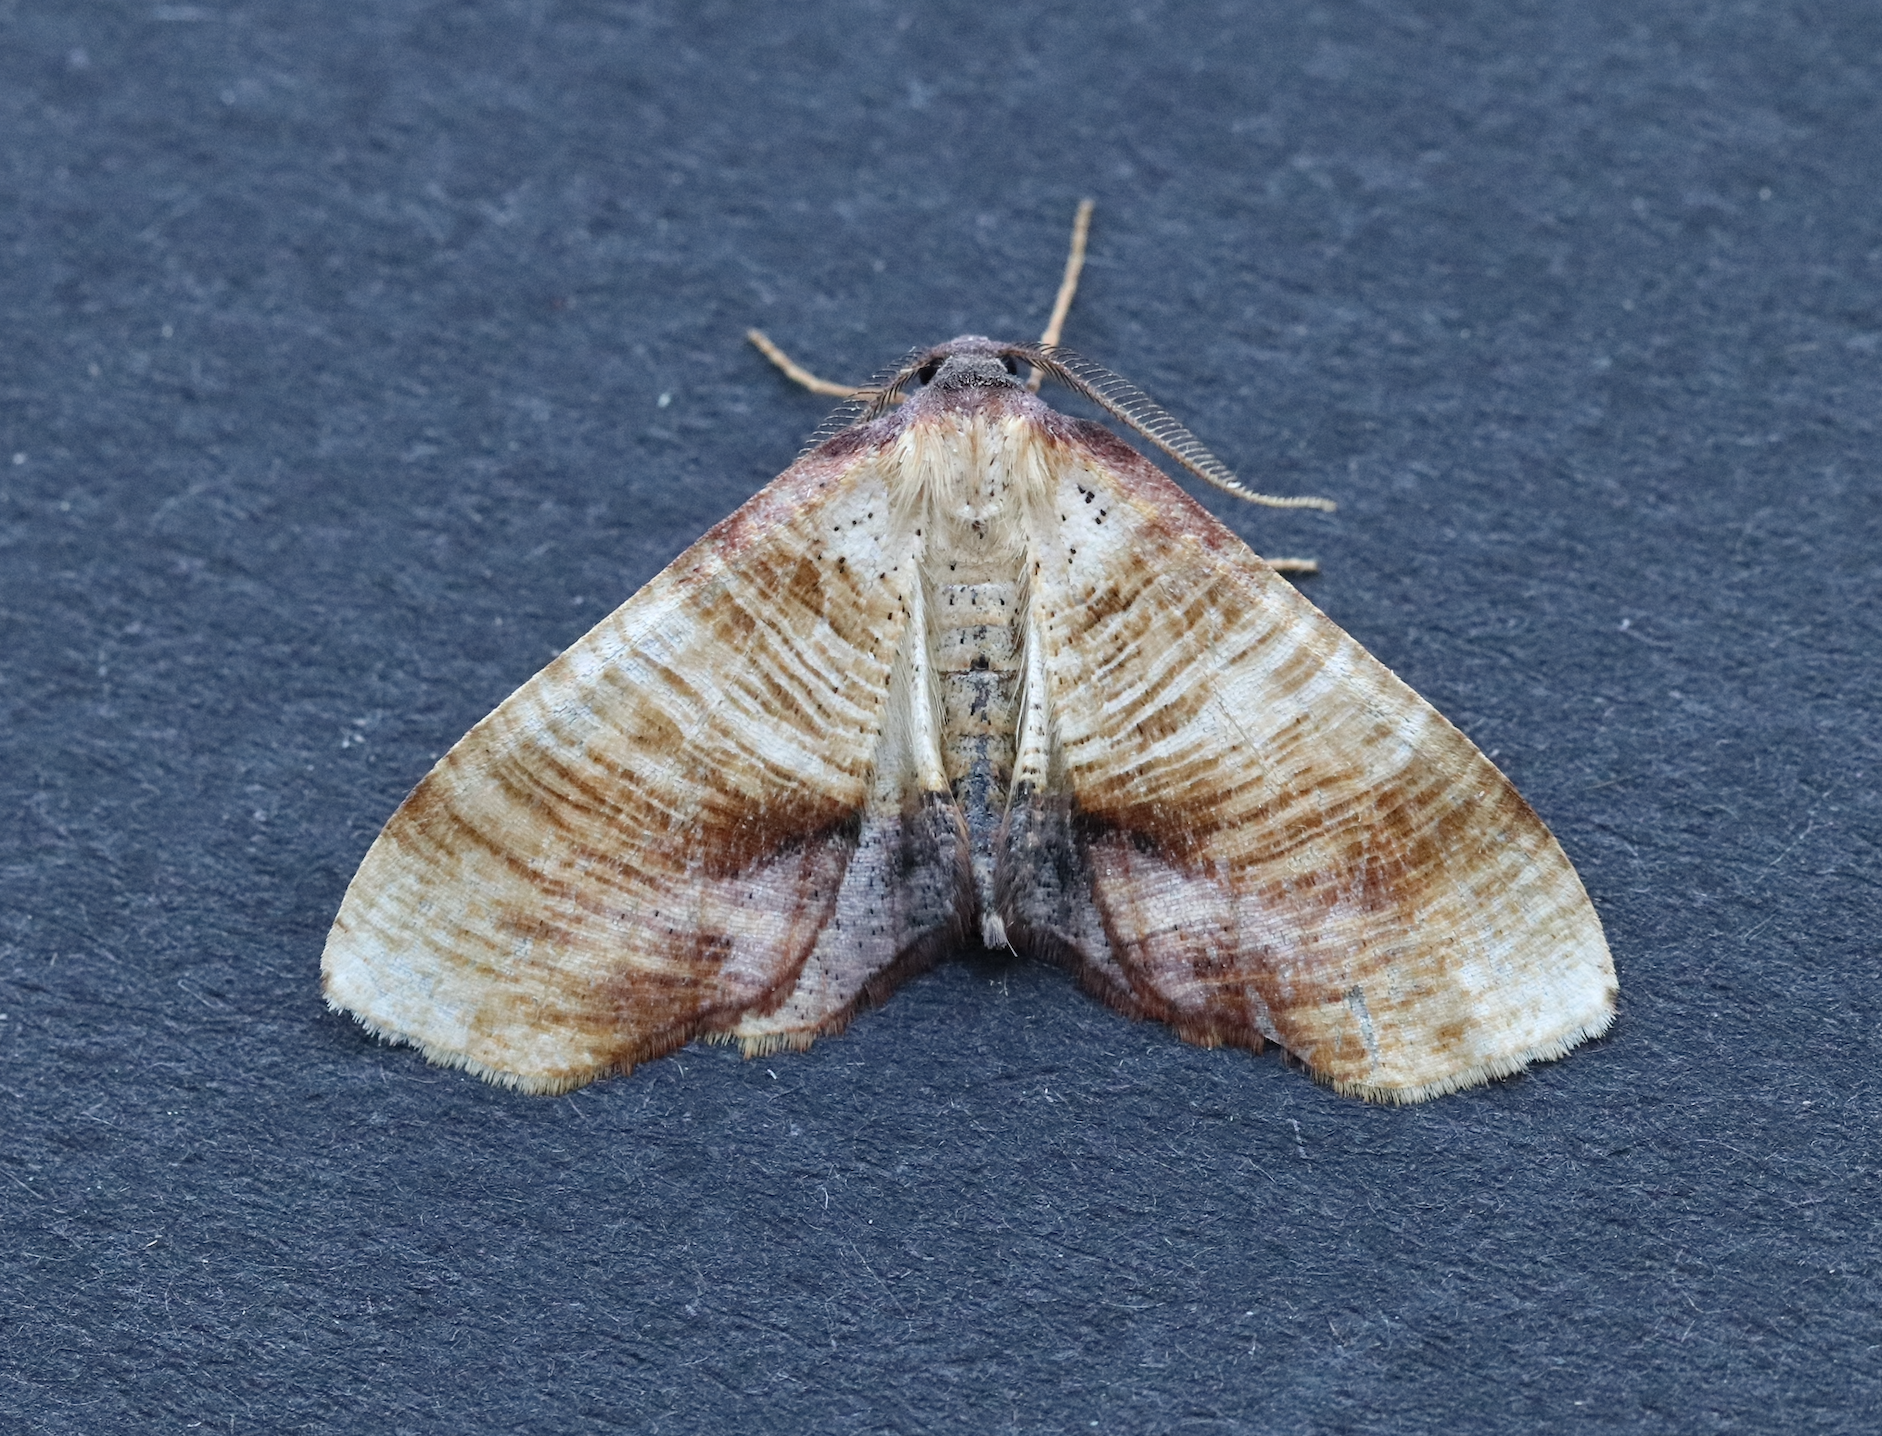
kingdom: Animalia
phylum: Arthropoda
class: Insecta
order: Lepidoptera
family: Geometridae
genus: Plagodis
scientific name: Plagodis dolabraria
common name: Scorched wing
